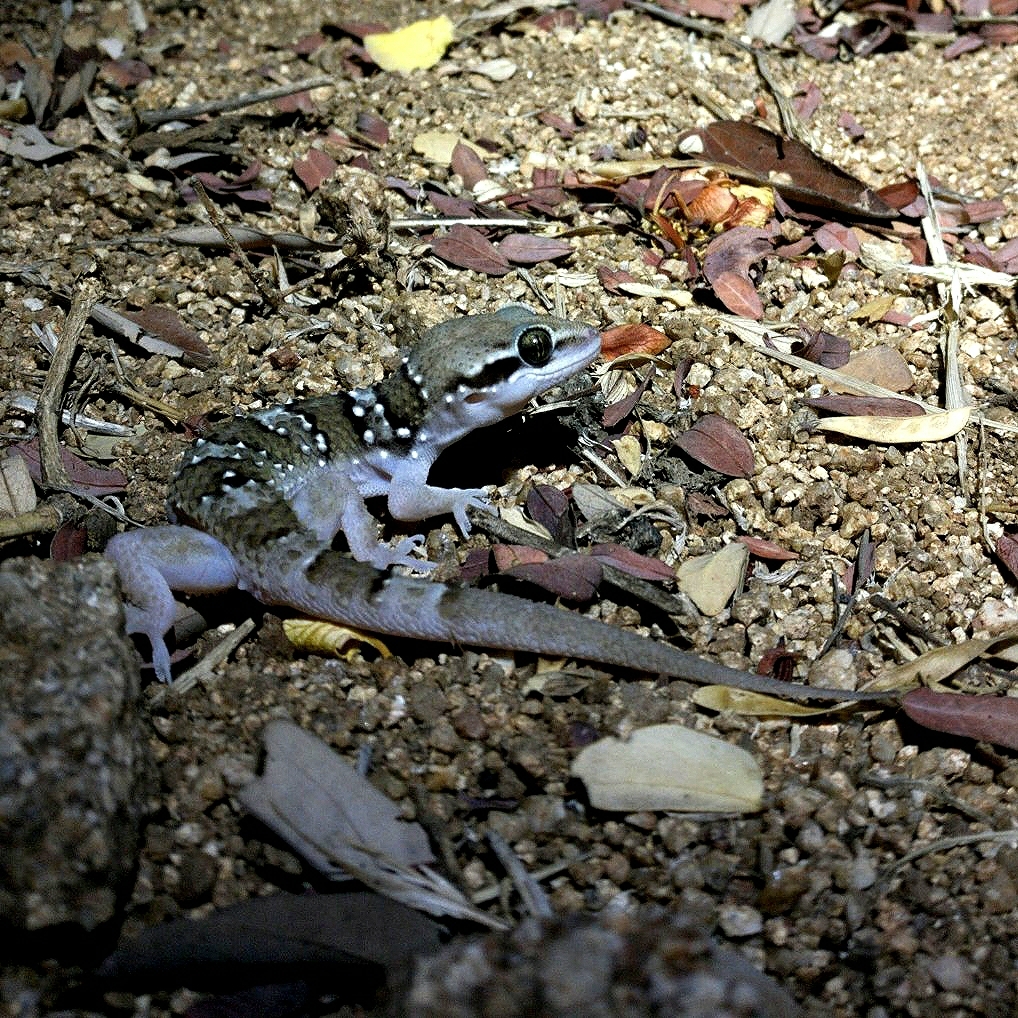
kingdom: Animalia
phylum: Chordata
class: Squamata
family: Gekkonidae
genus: Hemidactylus
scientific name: Hemidactylus triedrus
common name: Blotched house gecko
